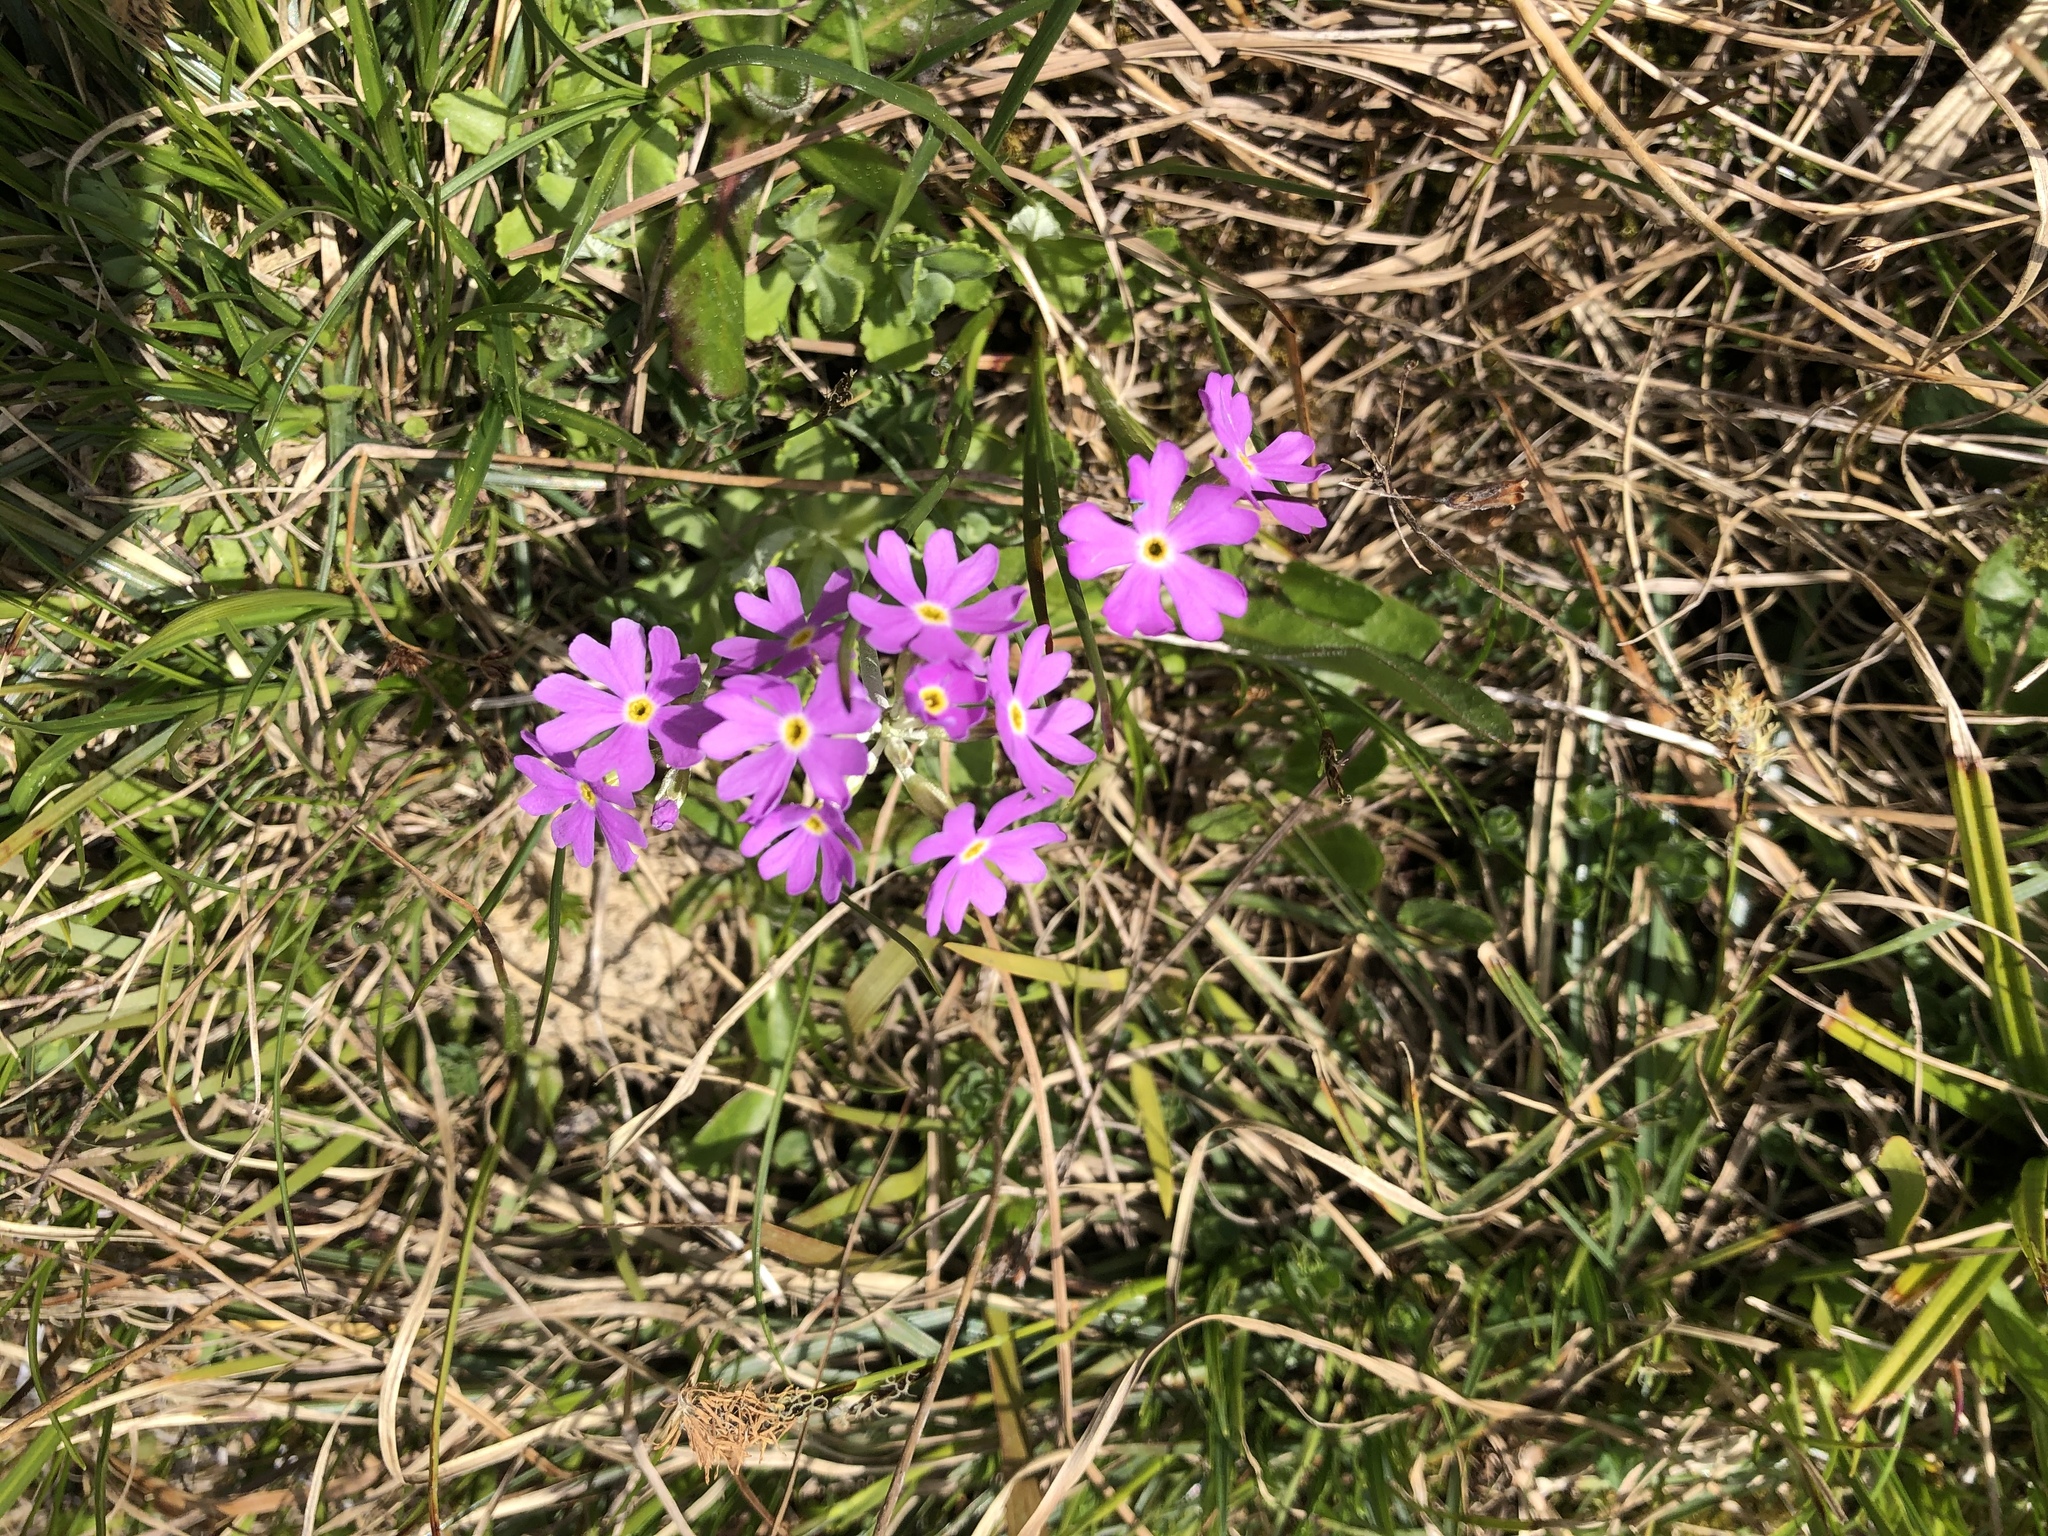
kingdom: Plantae
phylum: Tracheophyta
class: Magnoliopsida
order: Ericales
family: Primulaceae
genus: Primula
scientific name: Primula farinosa
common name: Bird's-eye primrose
